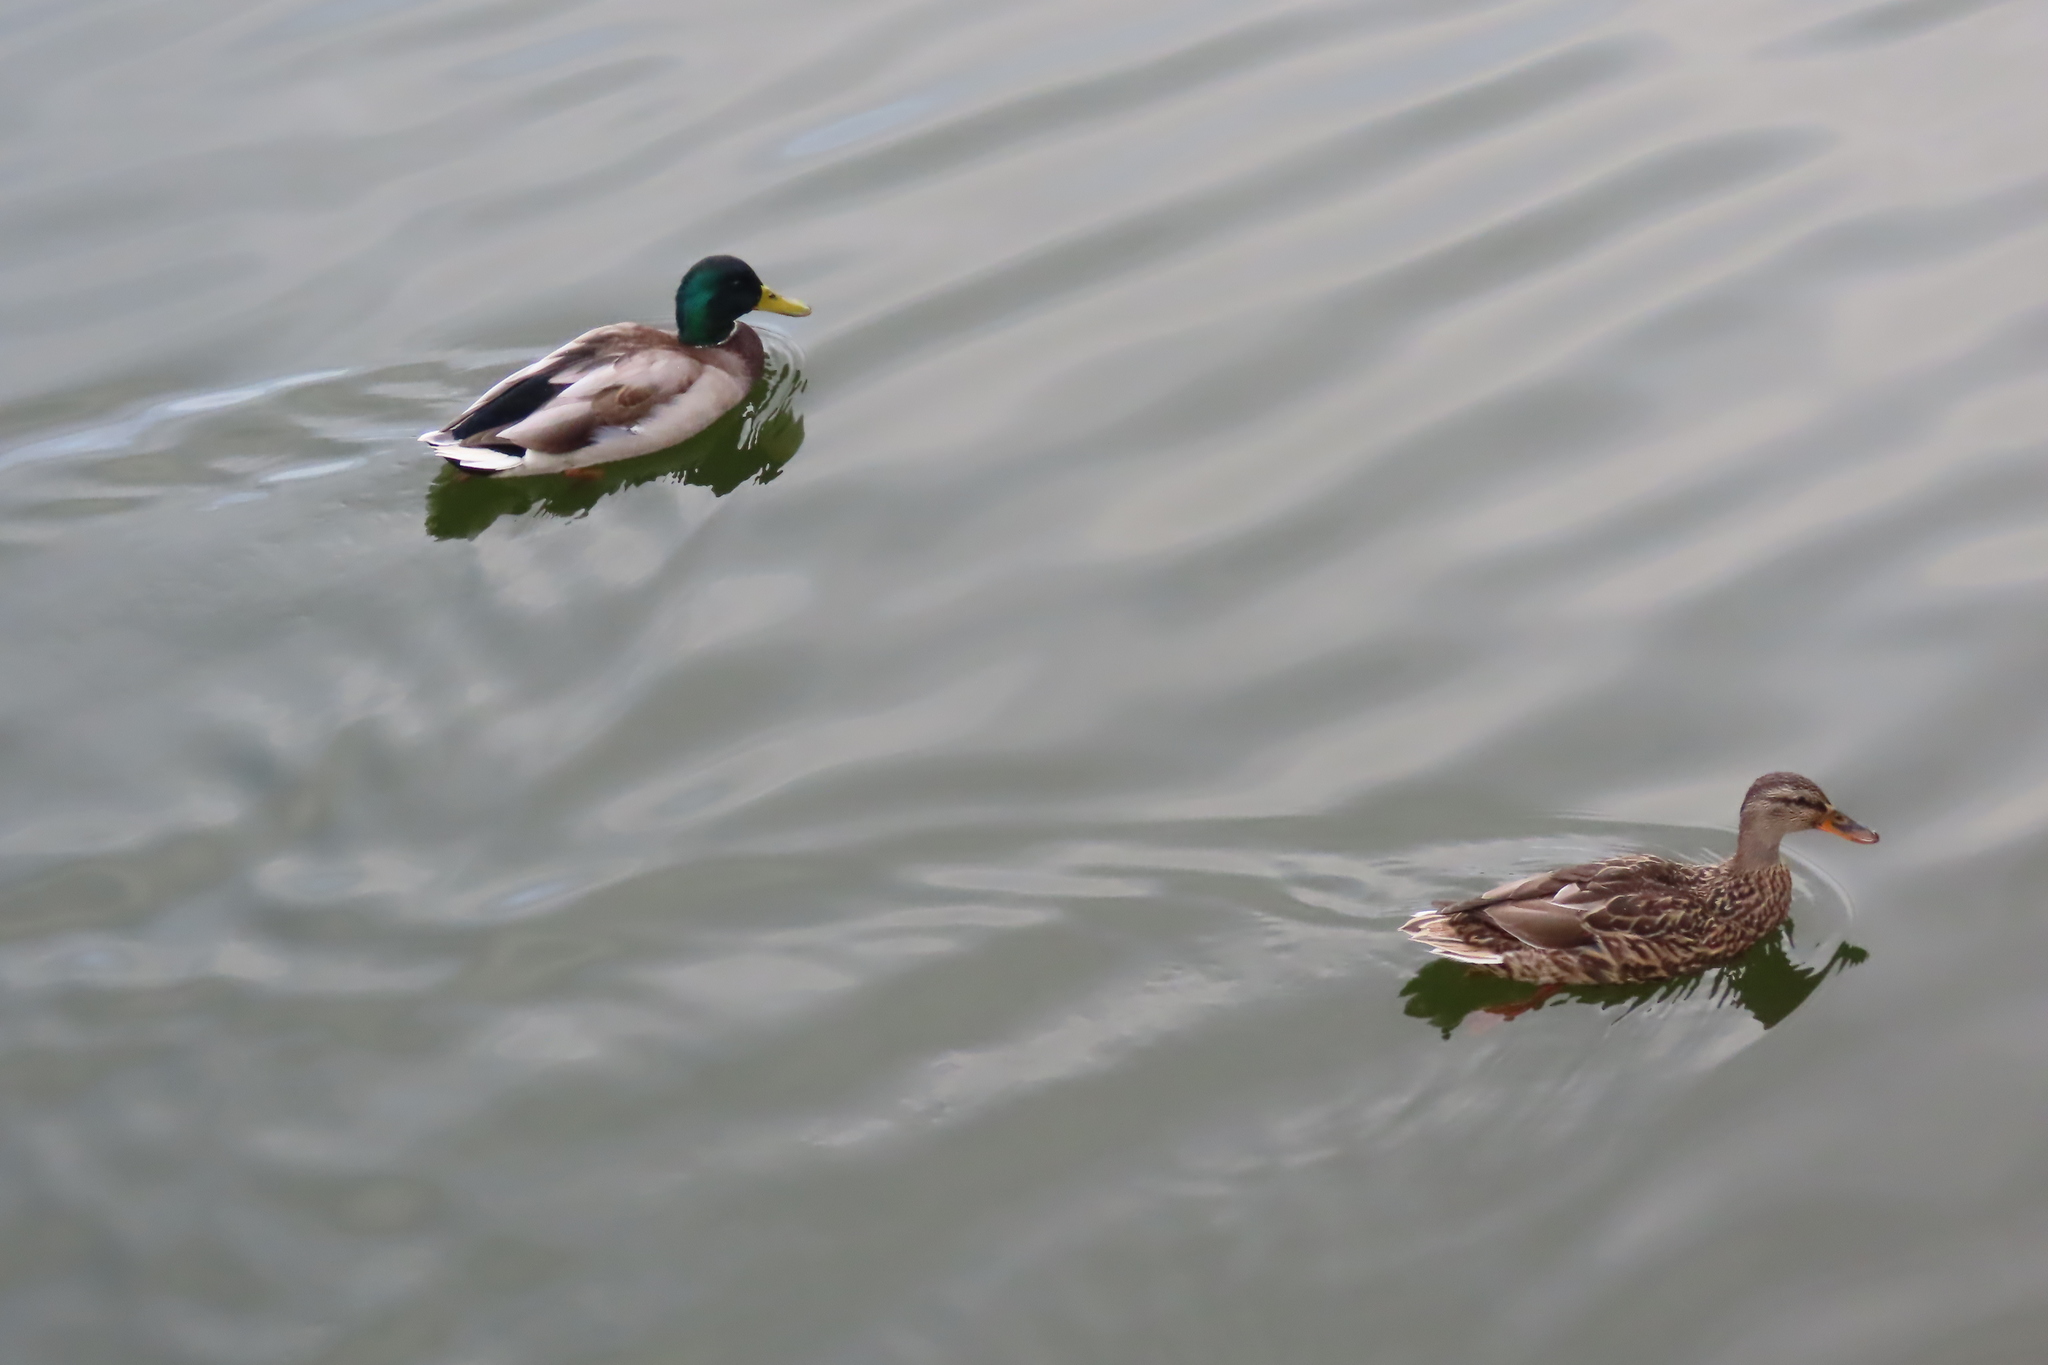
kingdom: Animalia
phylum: Chordata
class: Aves
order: Anseriformes
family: Anatidae
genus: Anas
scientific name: Anas platyrhynchos
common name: Mallard
